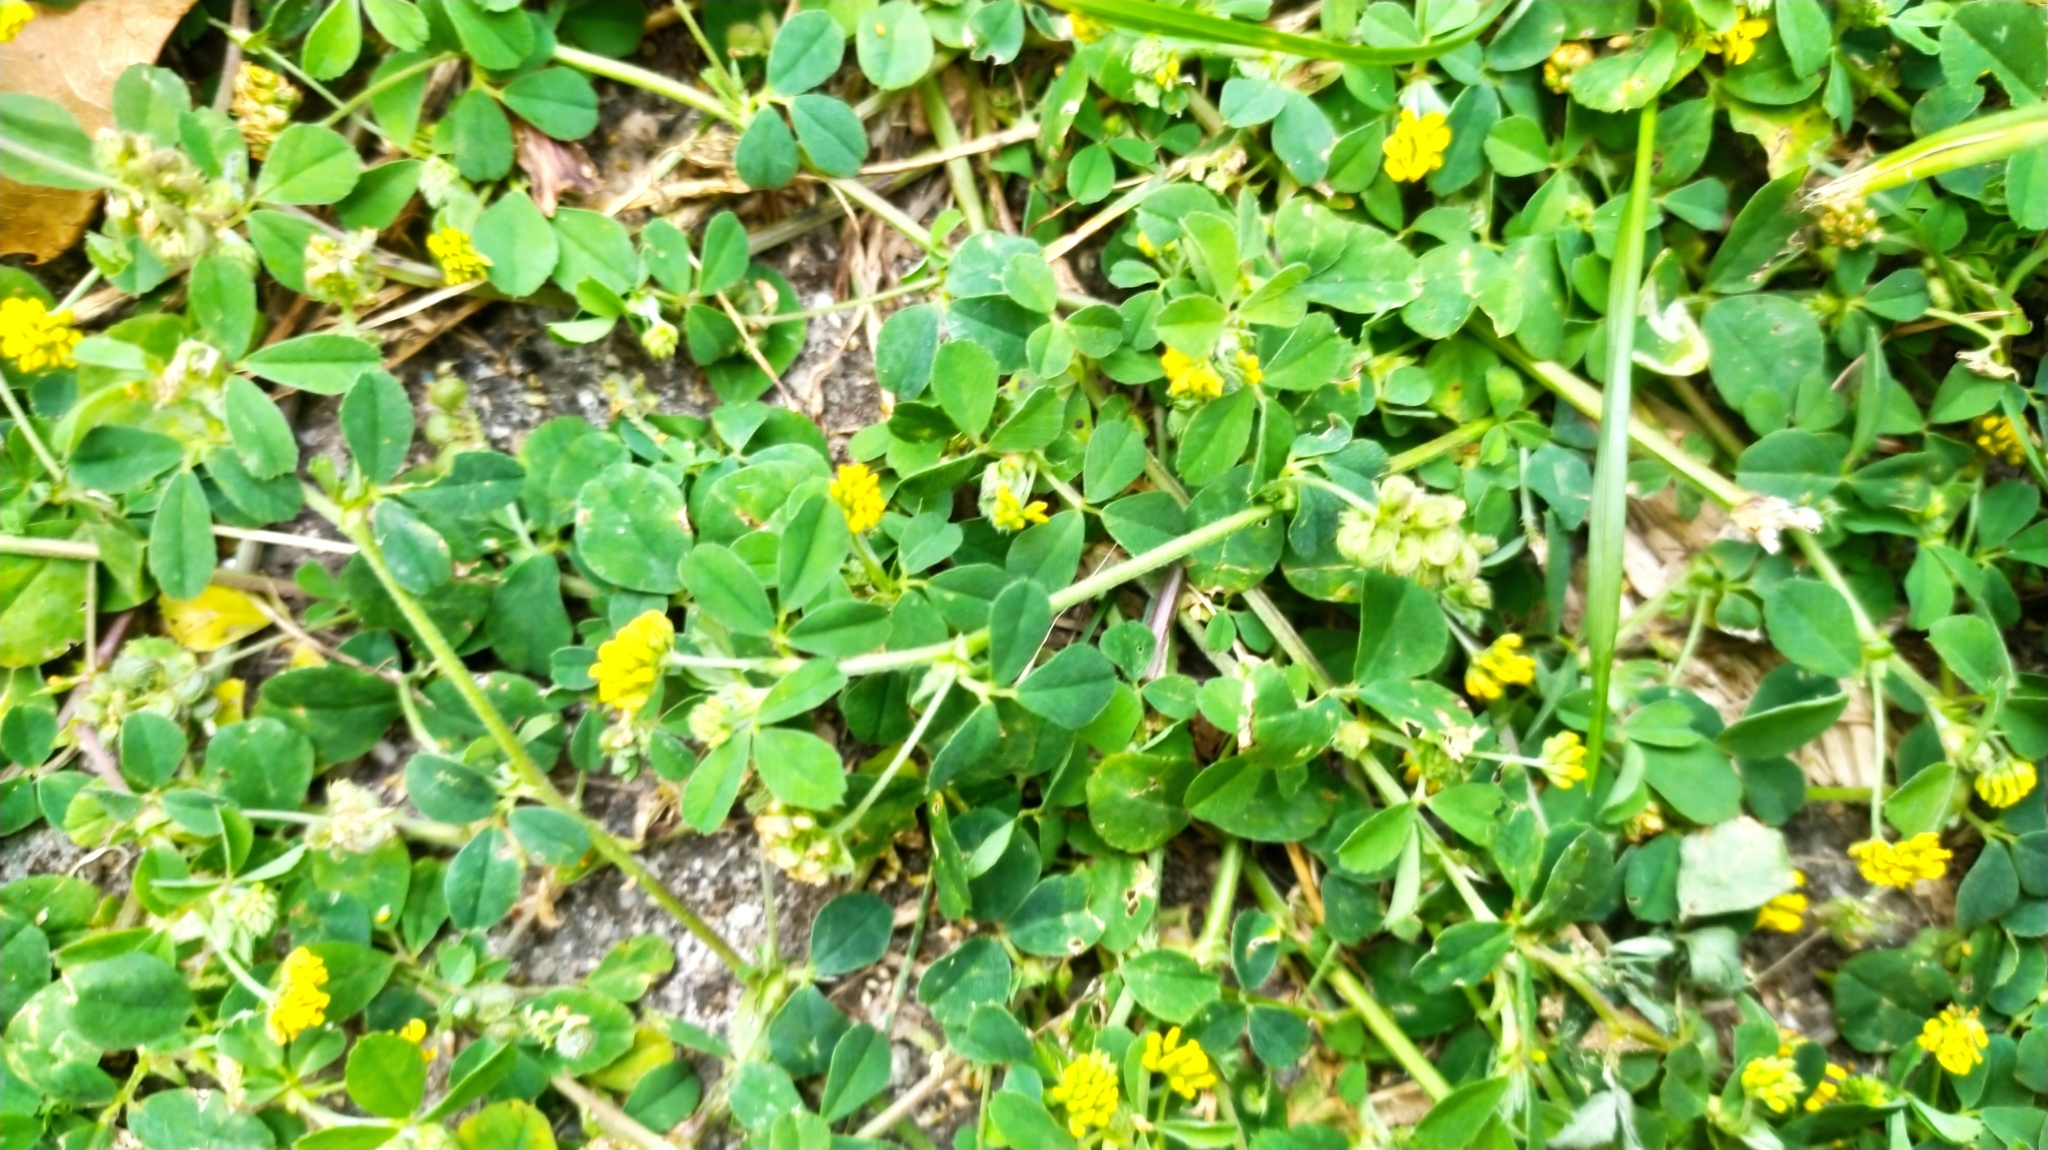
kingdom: Plantae
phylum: Tracheophyta
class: Magnoliopsida
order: Fabales
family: Fabaceae
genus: Medicago
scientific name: Medicago lupulina
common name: Black medick
